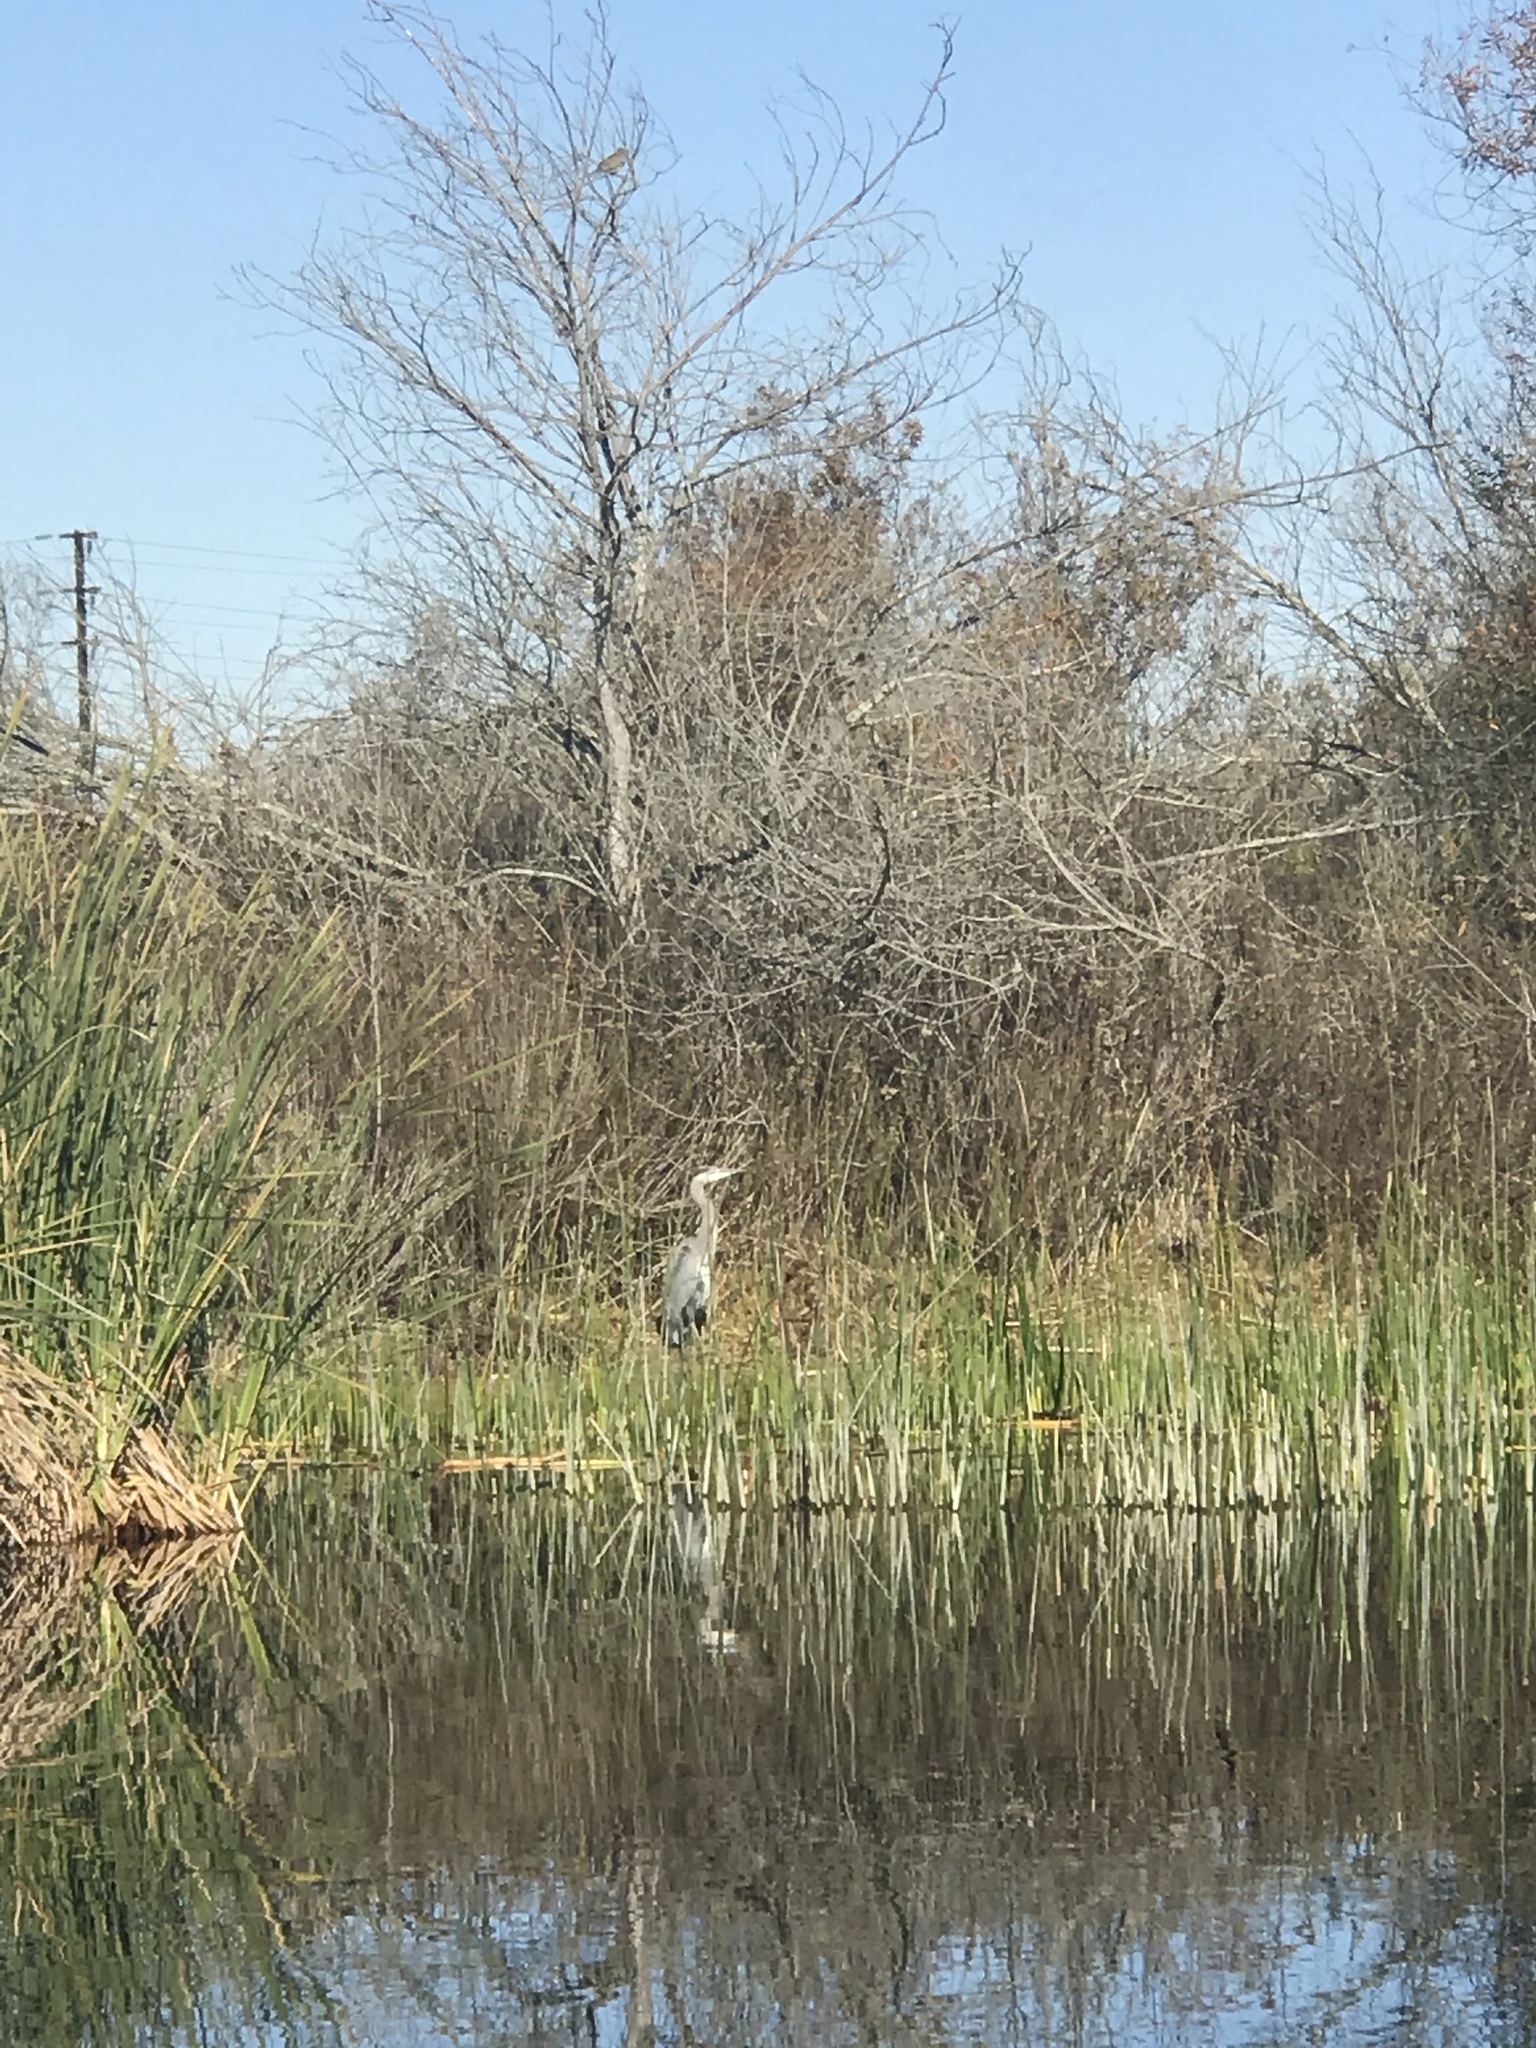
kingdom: Animalia
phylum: Chordata
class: Aves
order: Pelecaniformes
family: Ardeidae
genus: Ardea
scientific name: Ardea herodias
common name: Great blue heron
